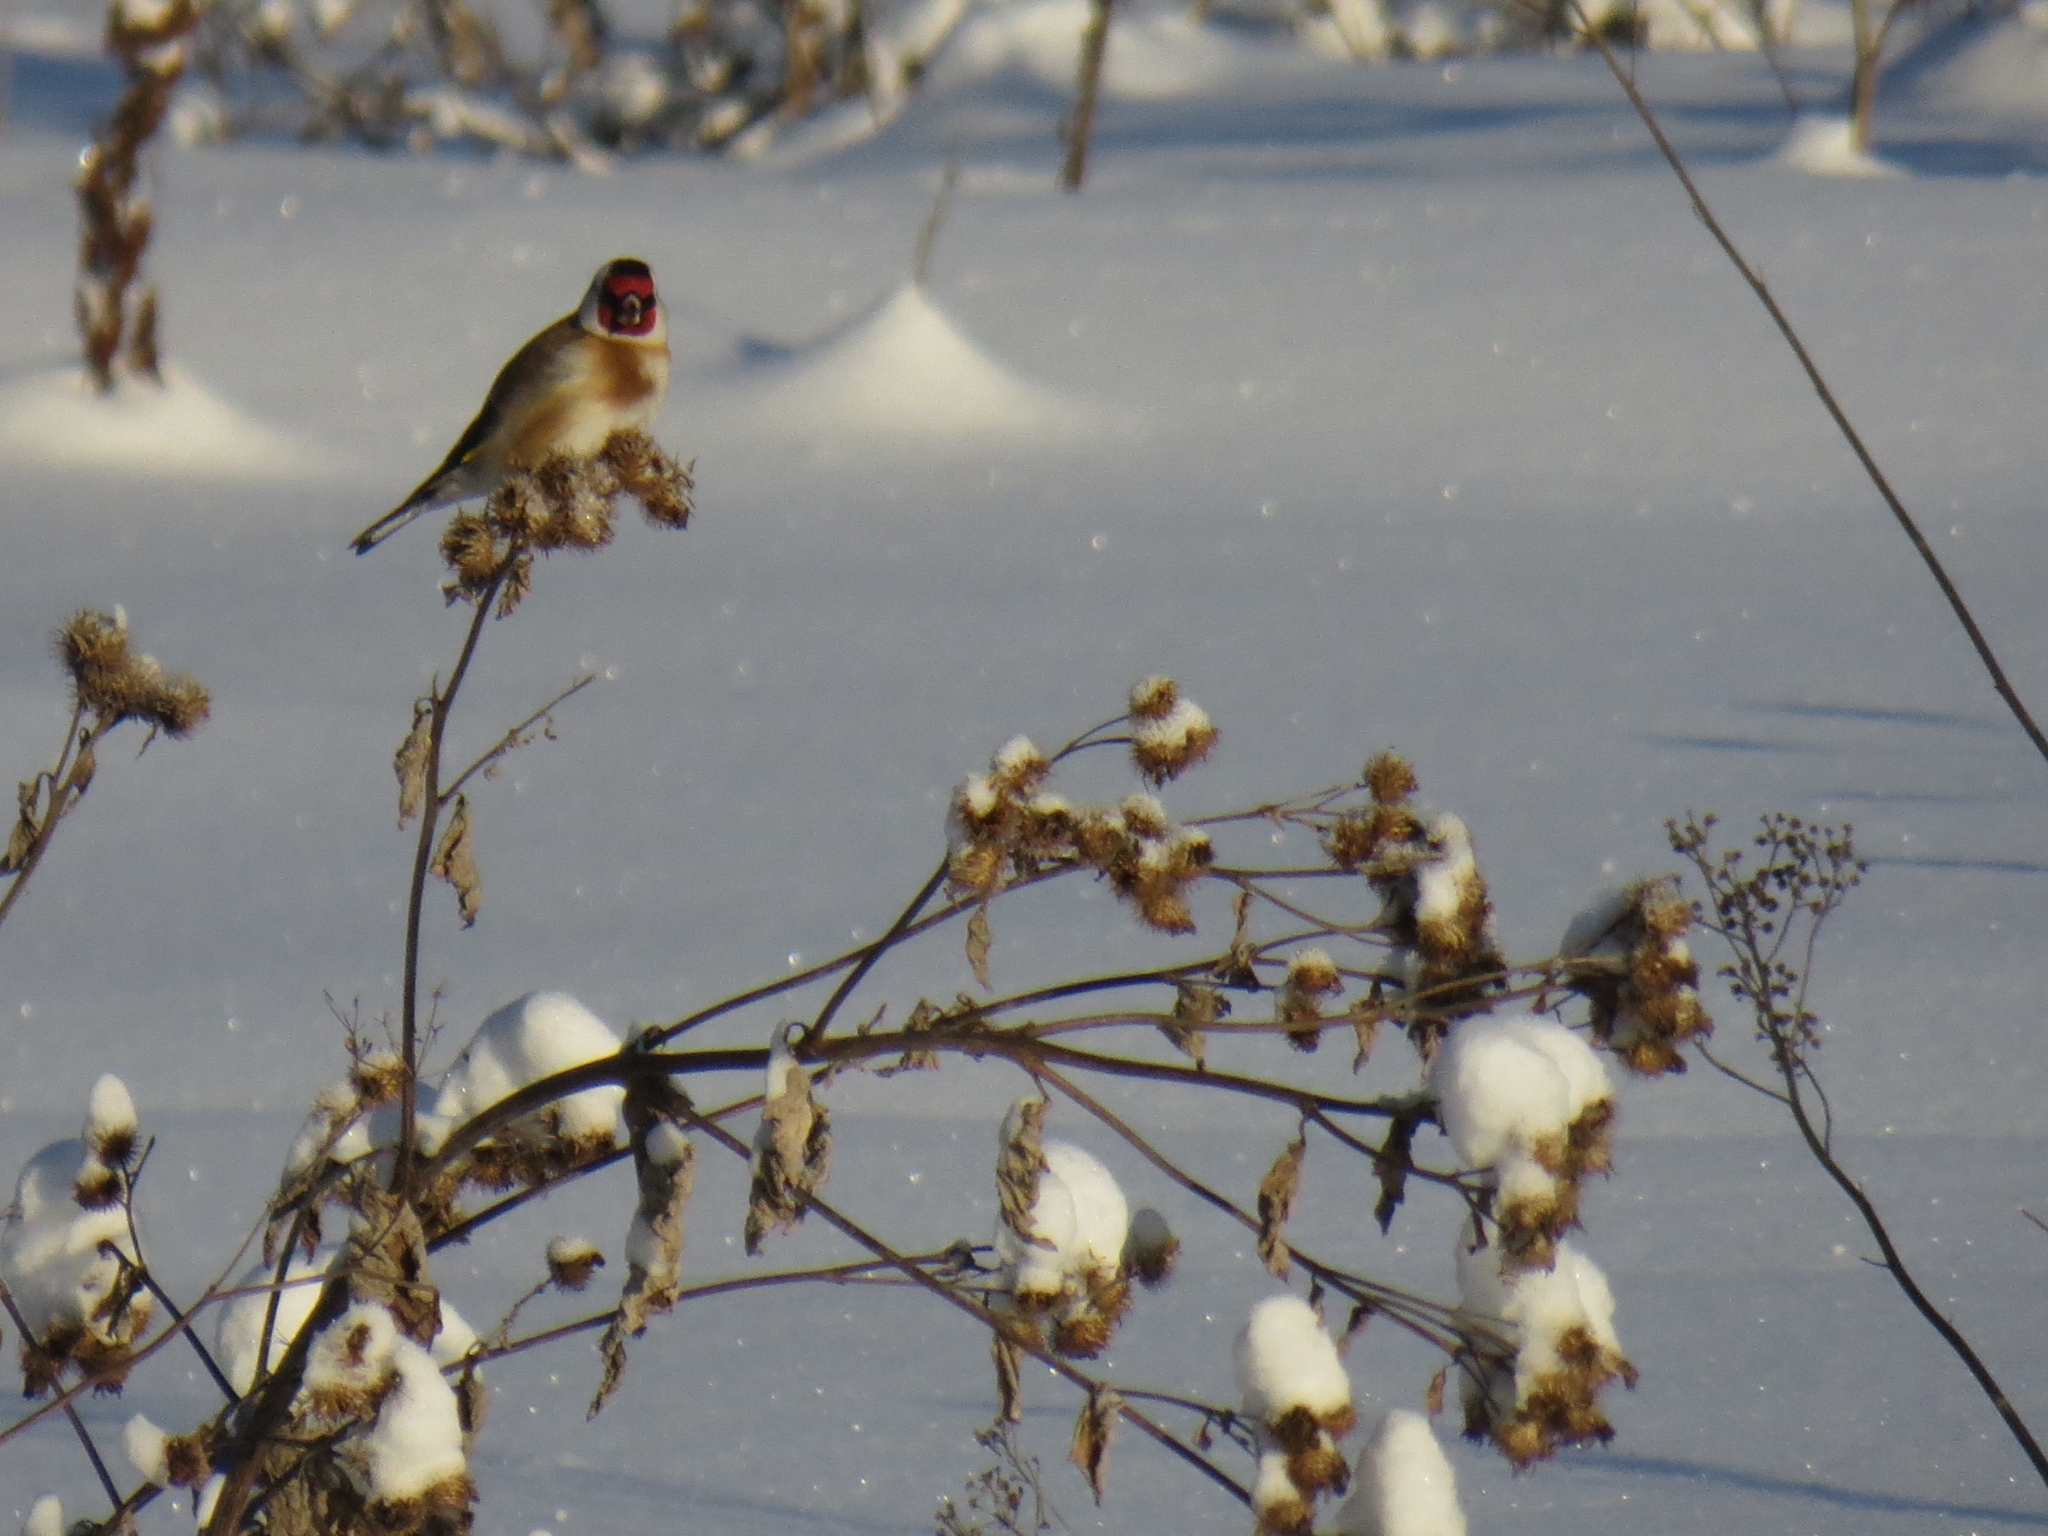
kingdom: Animalia
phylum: Chordata
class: Aves
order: Passeriformes
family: Fringillidae
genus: Carduelis
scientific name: Carduelis carduelis
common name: European goldfinch
